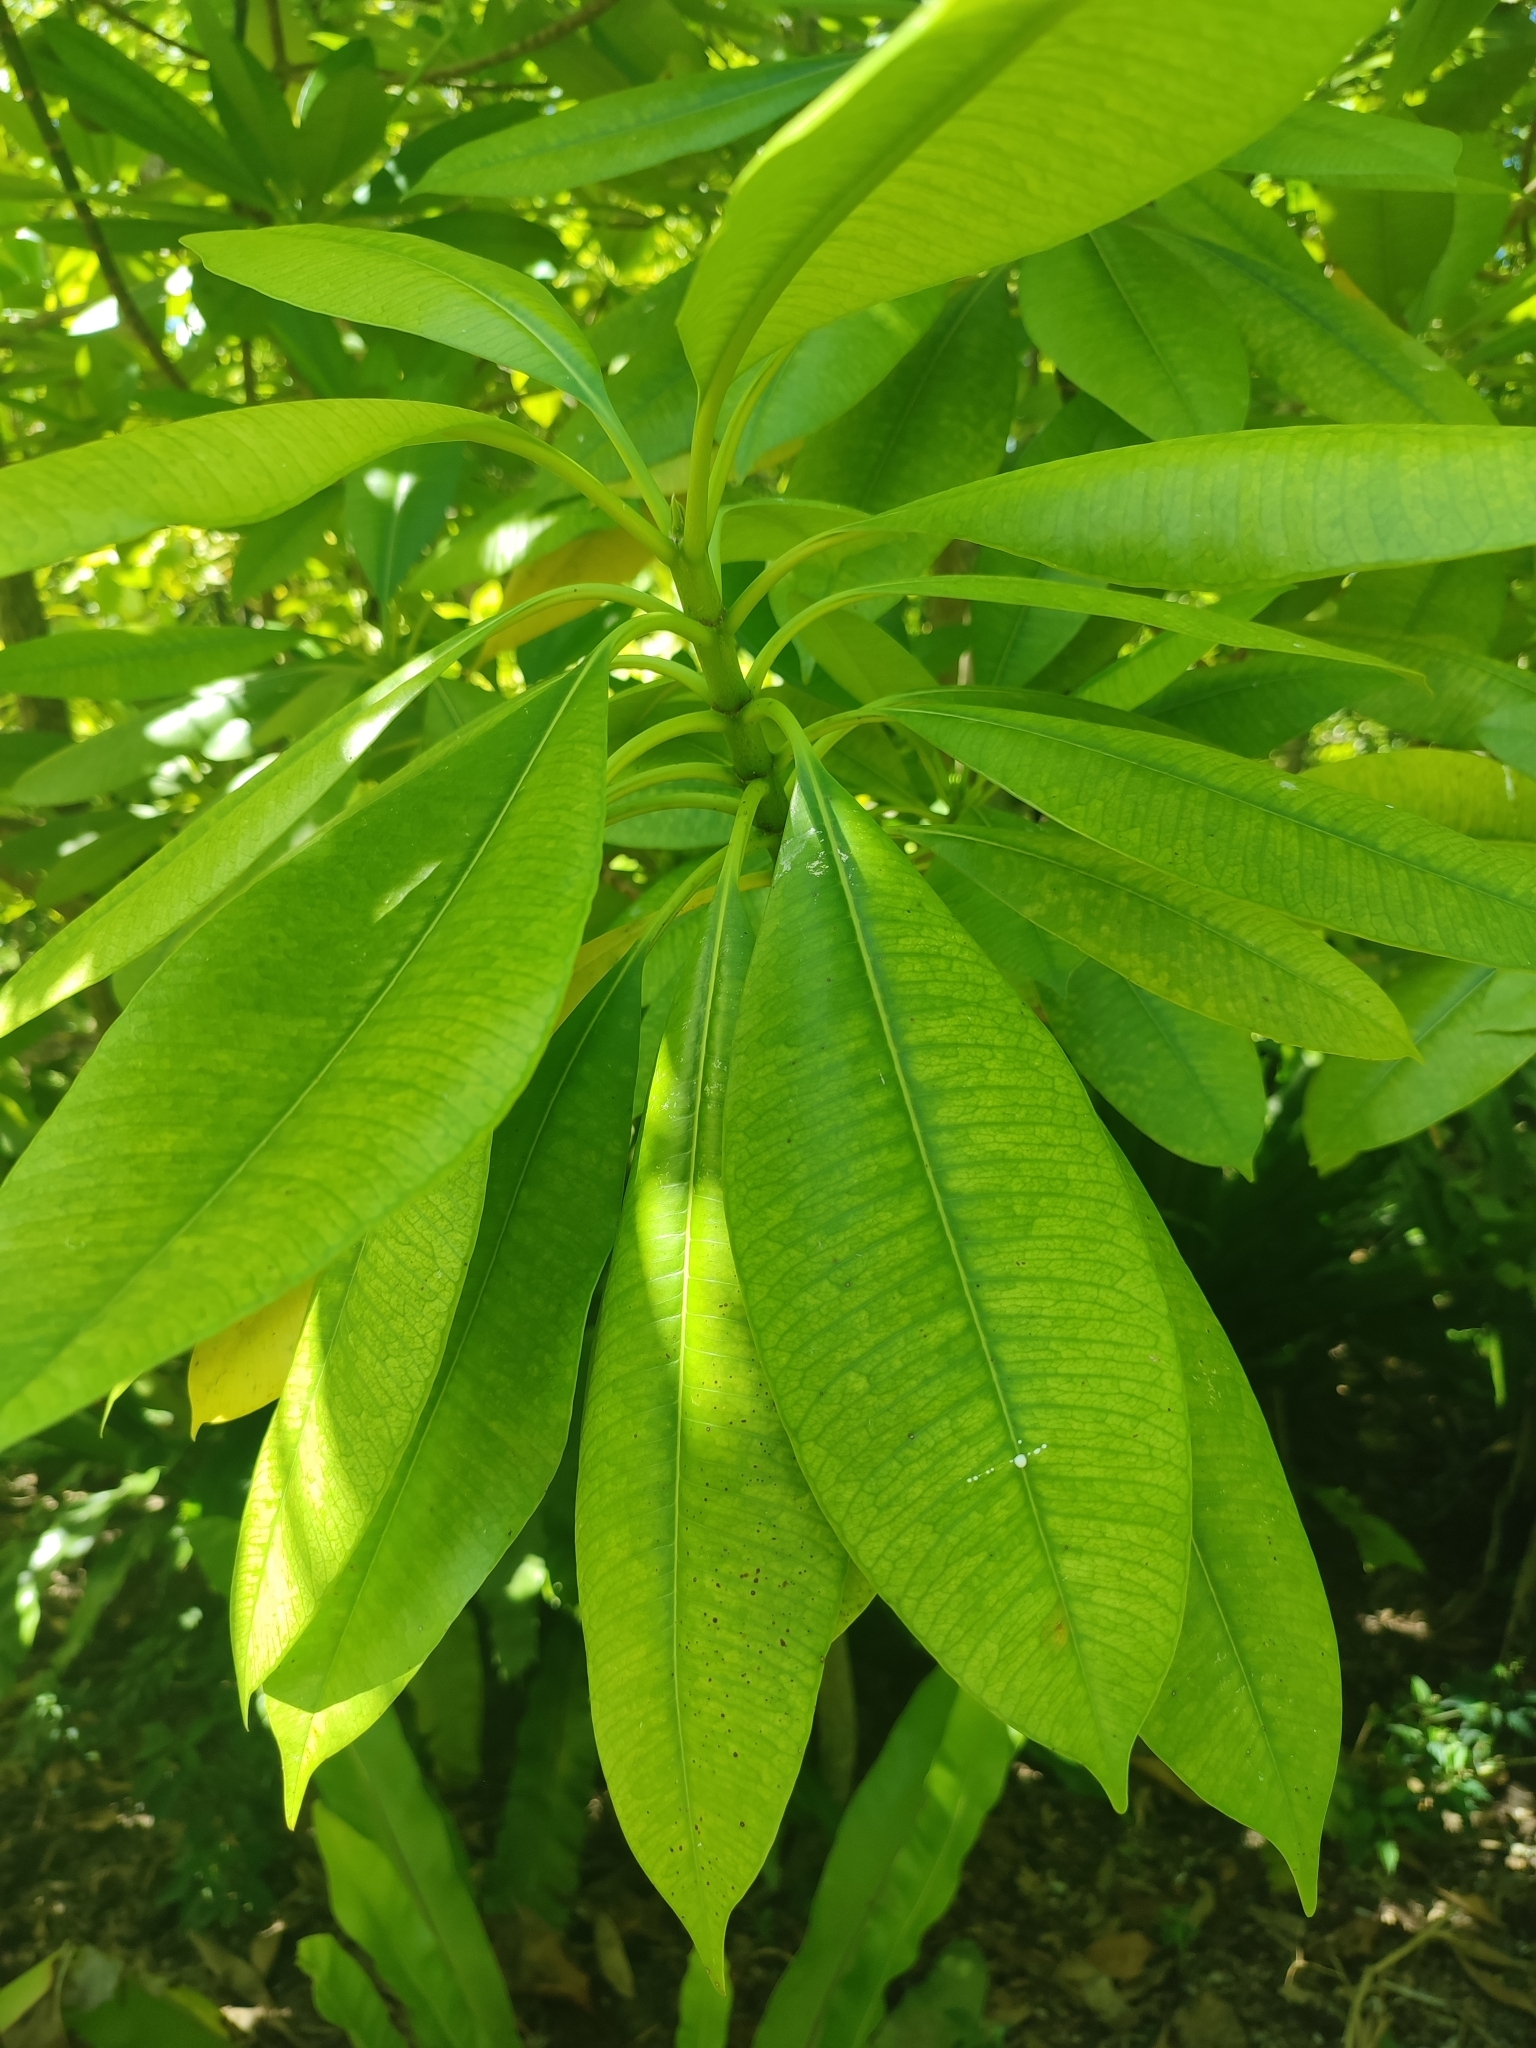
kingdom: Plantae
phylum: Tracheophyta
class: Magnoliopsida
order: Gentianales
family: Apocynaceae
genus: Ochrosia
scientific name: Ochrosia oppositifolia
